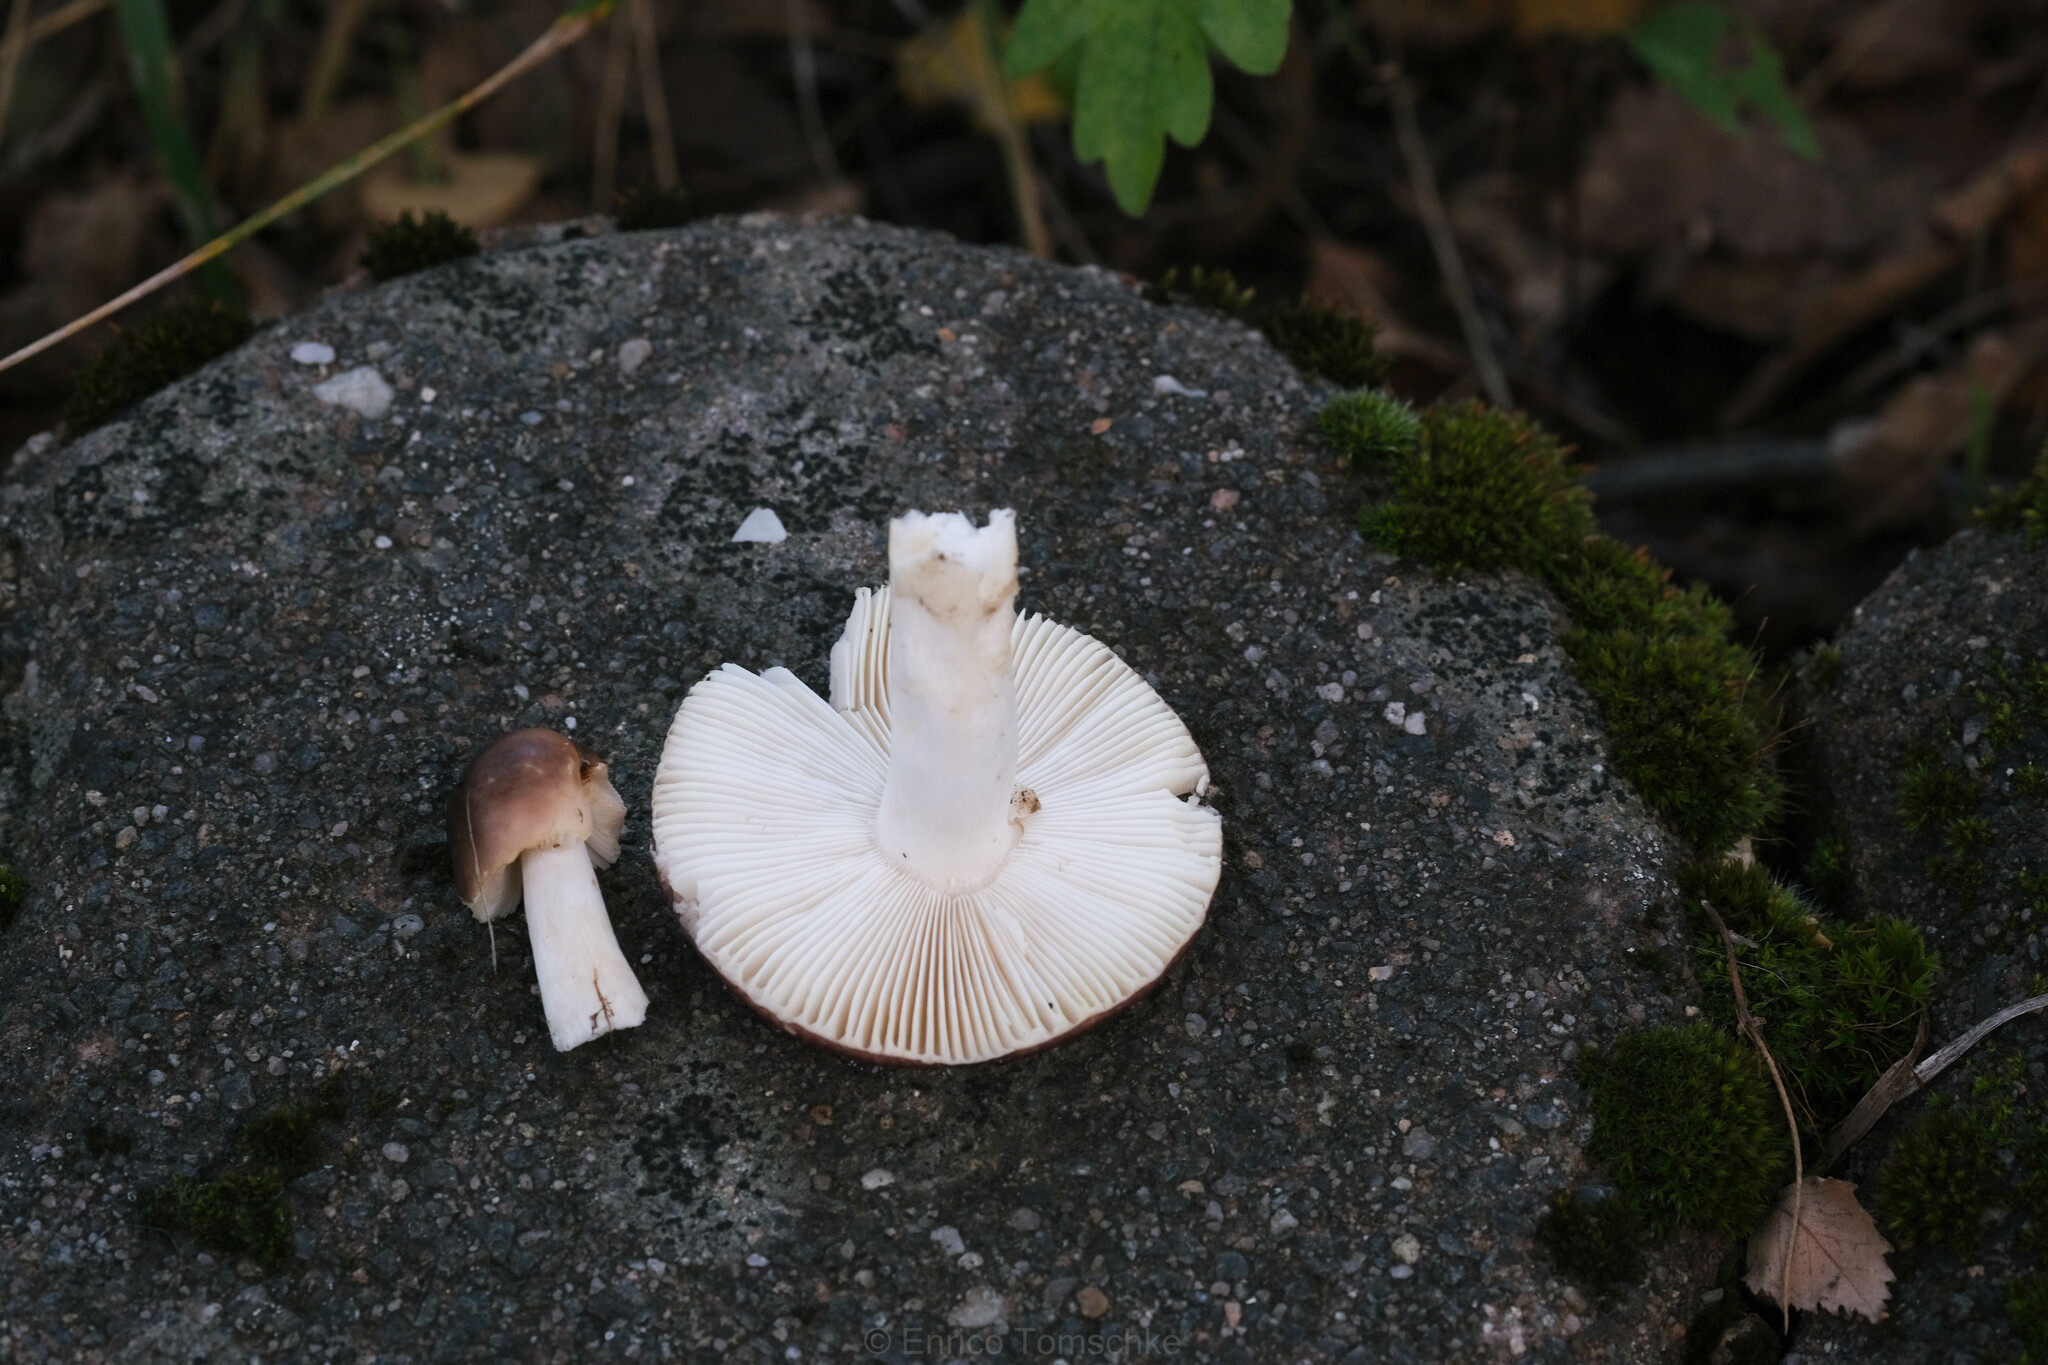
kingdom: Fungi
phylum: Basidiomycota
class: Agaricomycetes
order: Russulales
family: Russulaceae
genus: Russula
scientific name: Russula atrorubens
